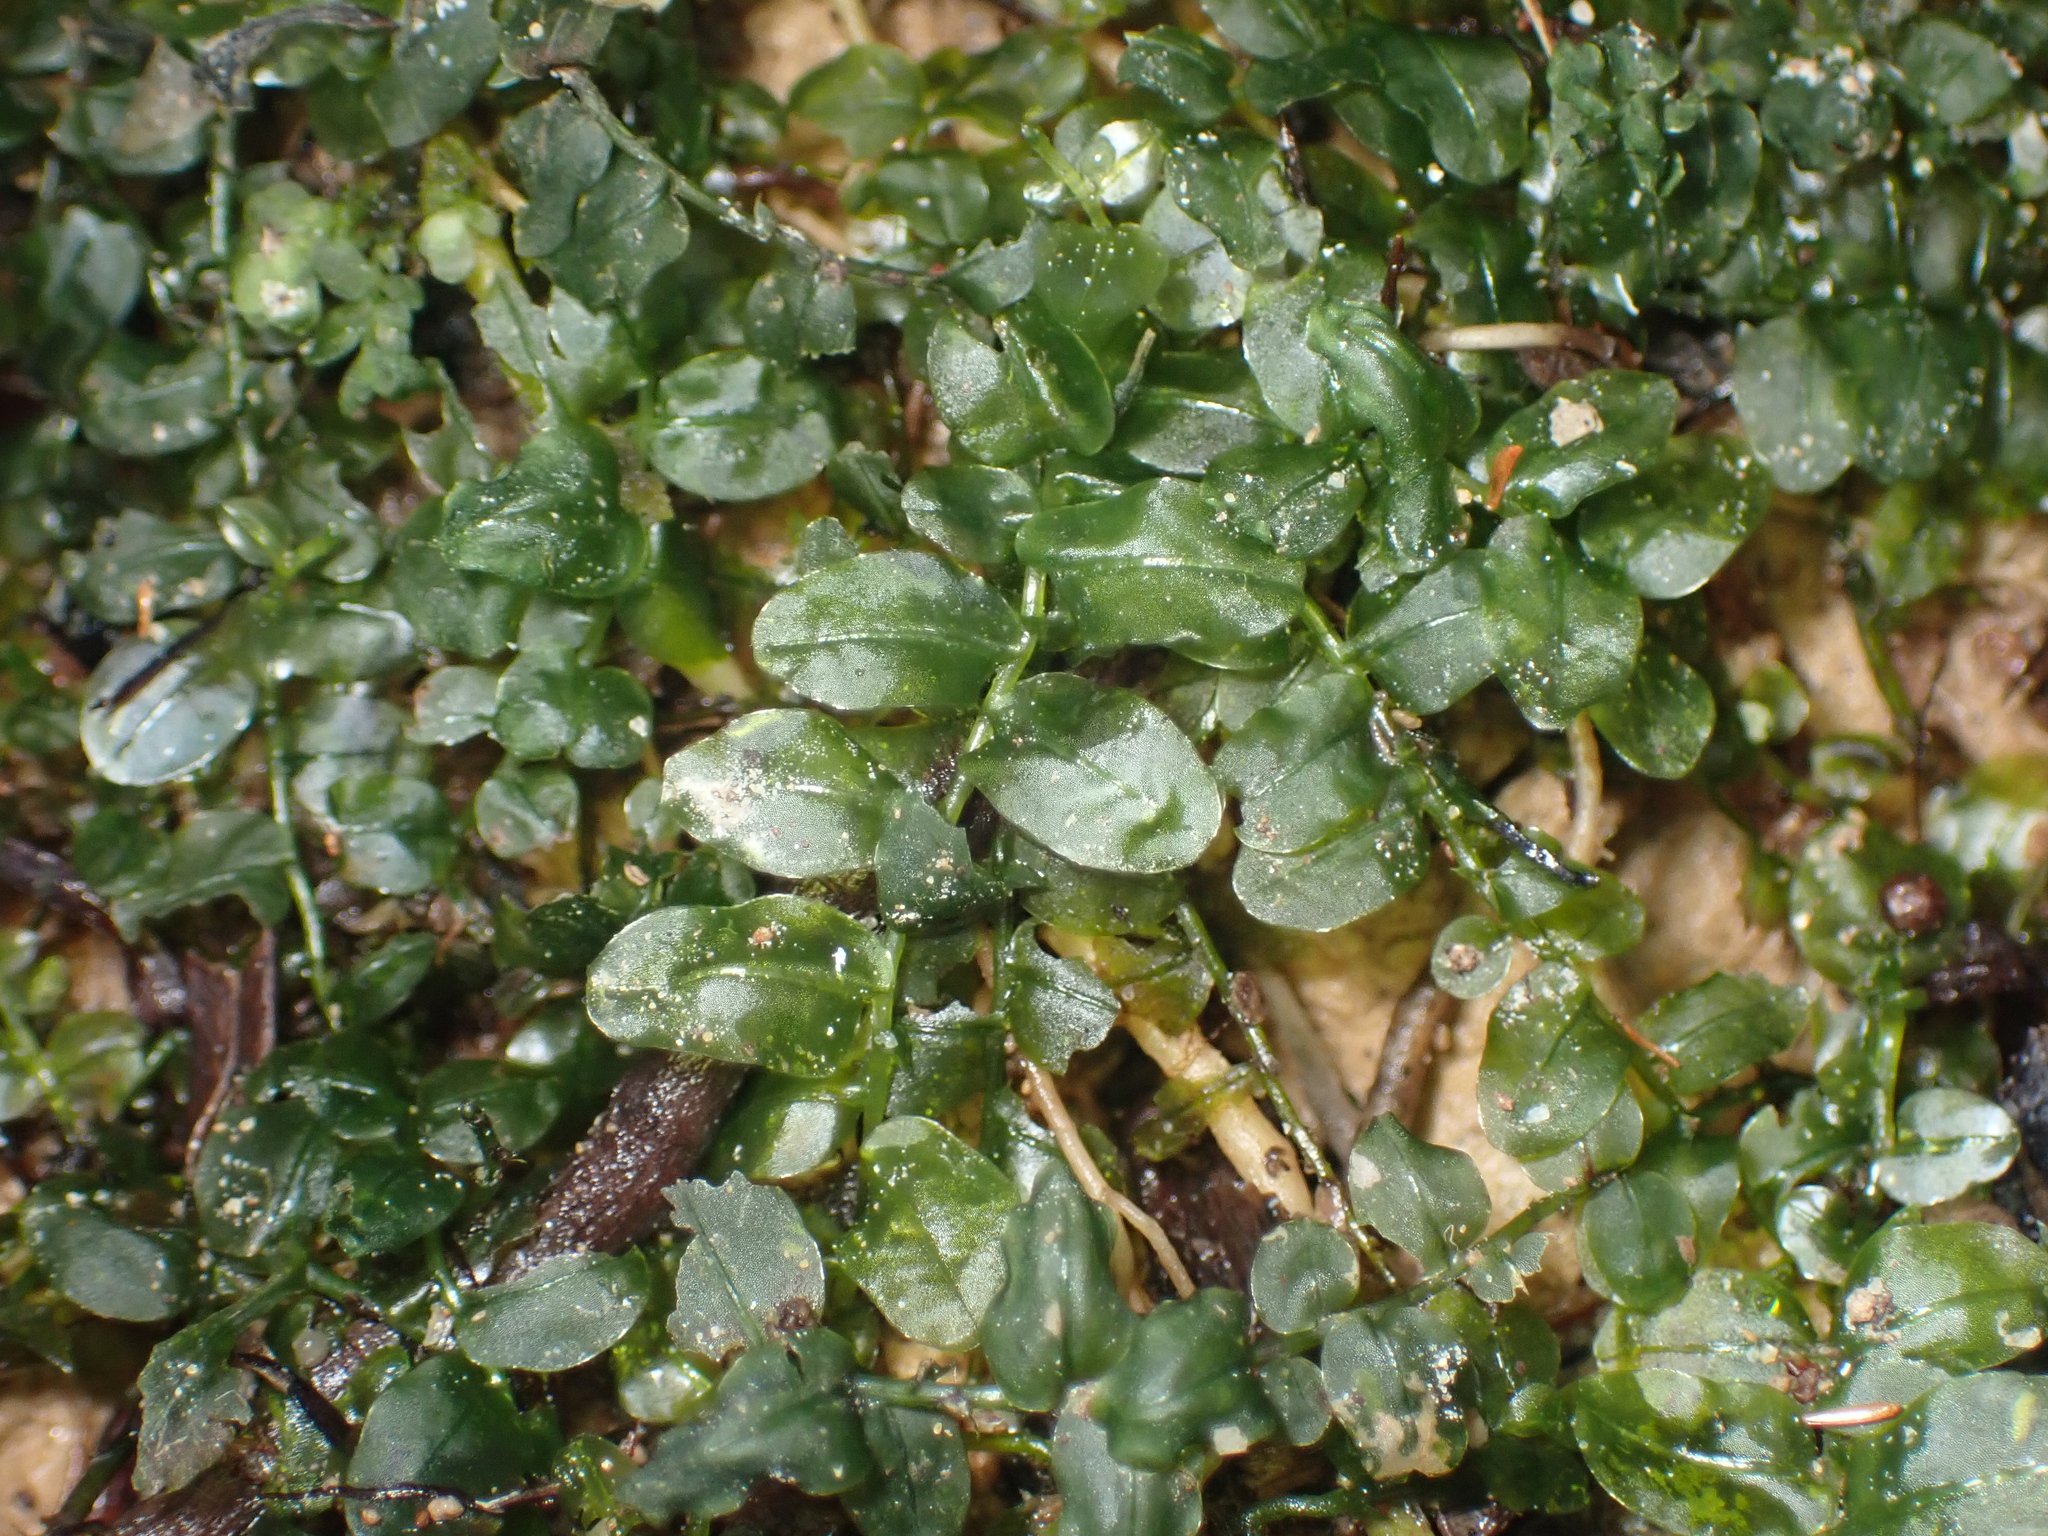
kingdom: Plantae
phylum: Bryophyta
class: Bryopsida
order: Bryales
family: Mniaceae
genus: Plagiomnium
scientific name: Plagiomnium novae-zealandiae
